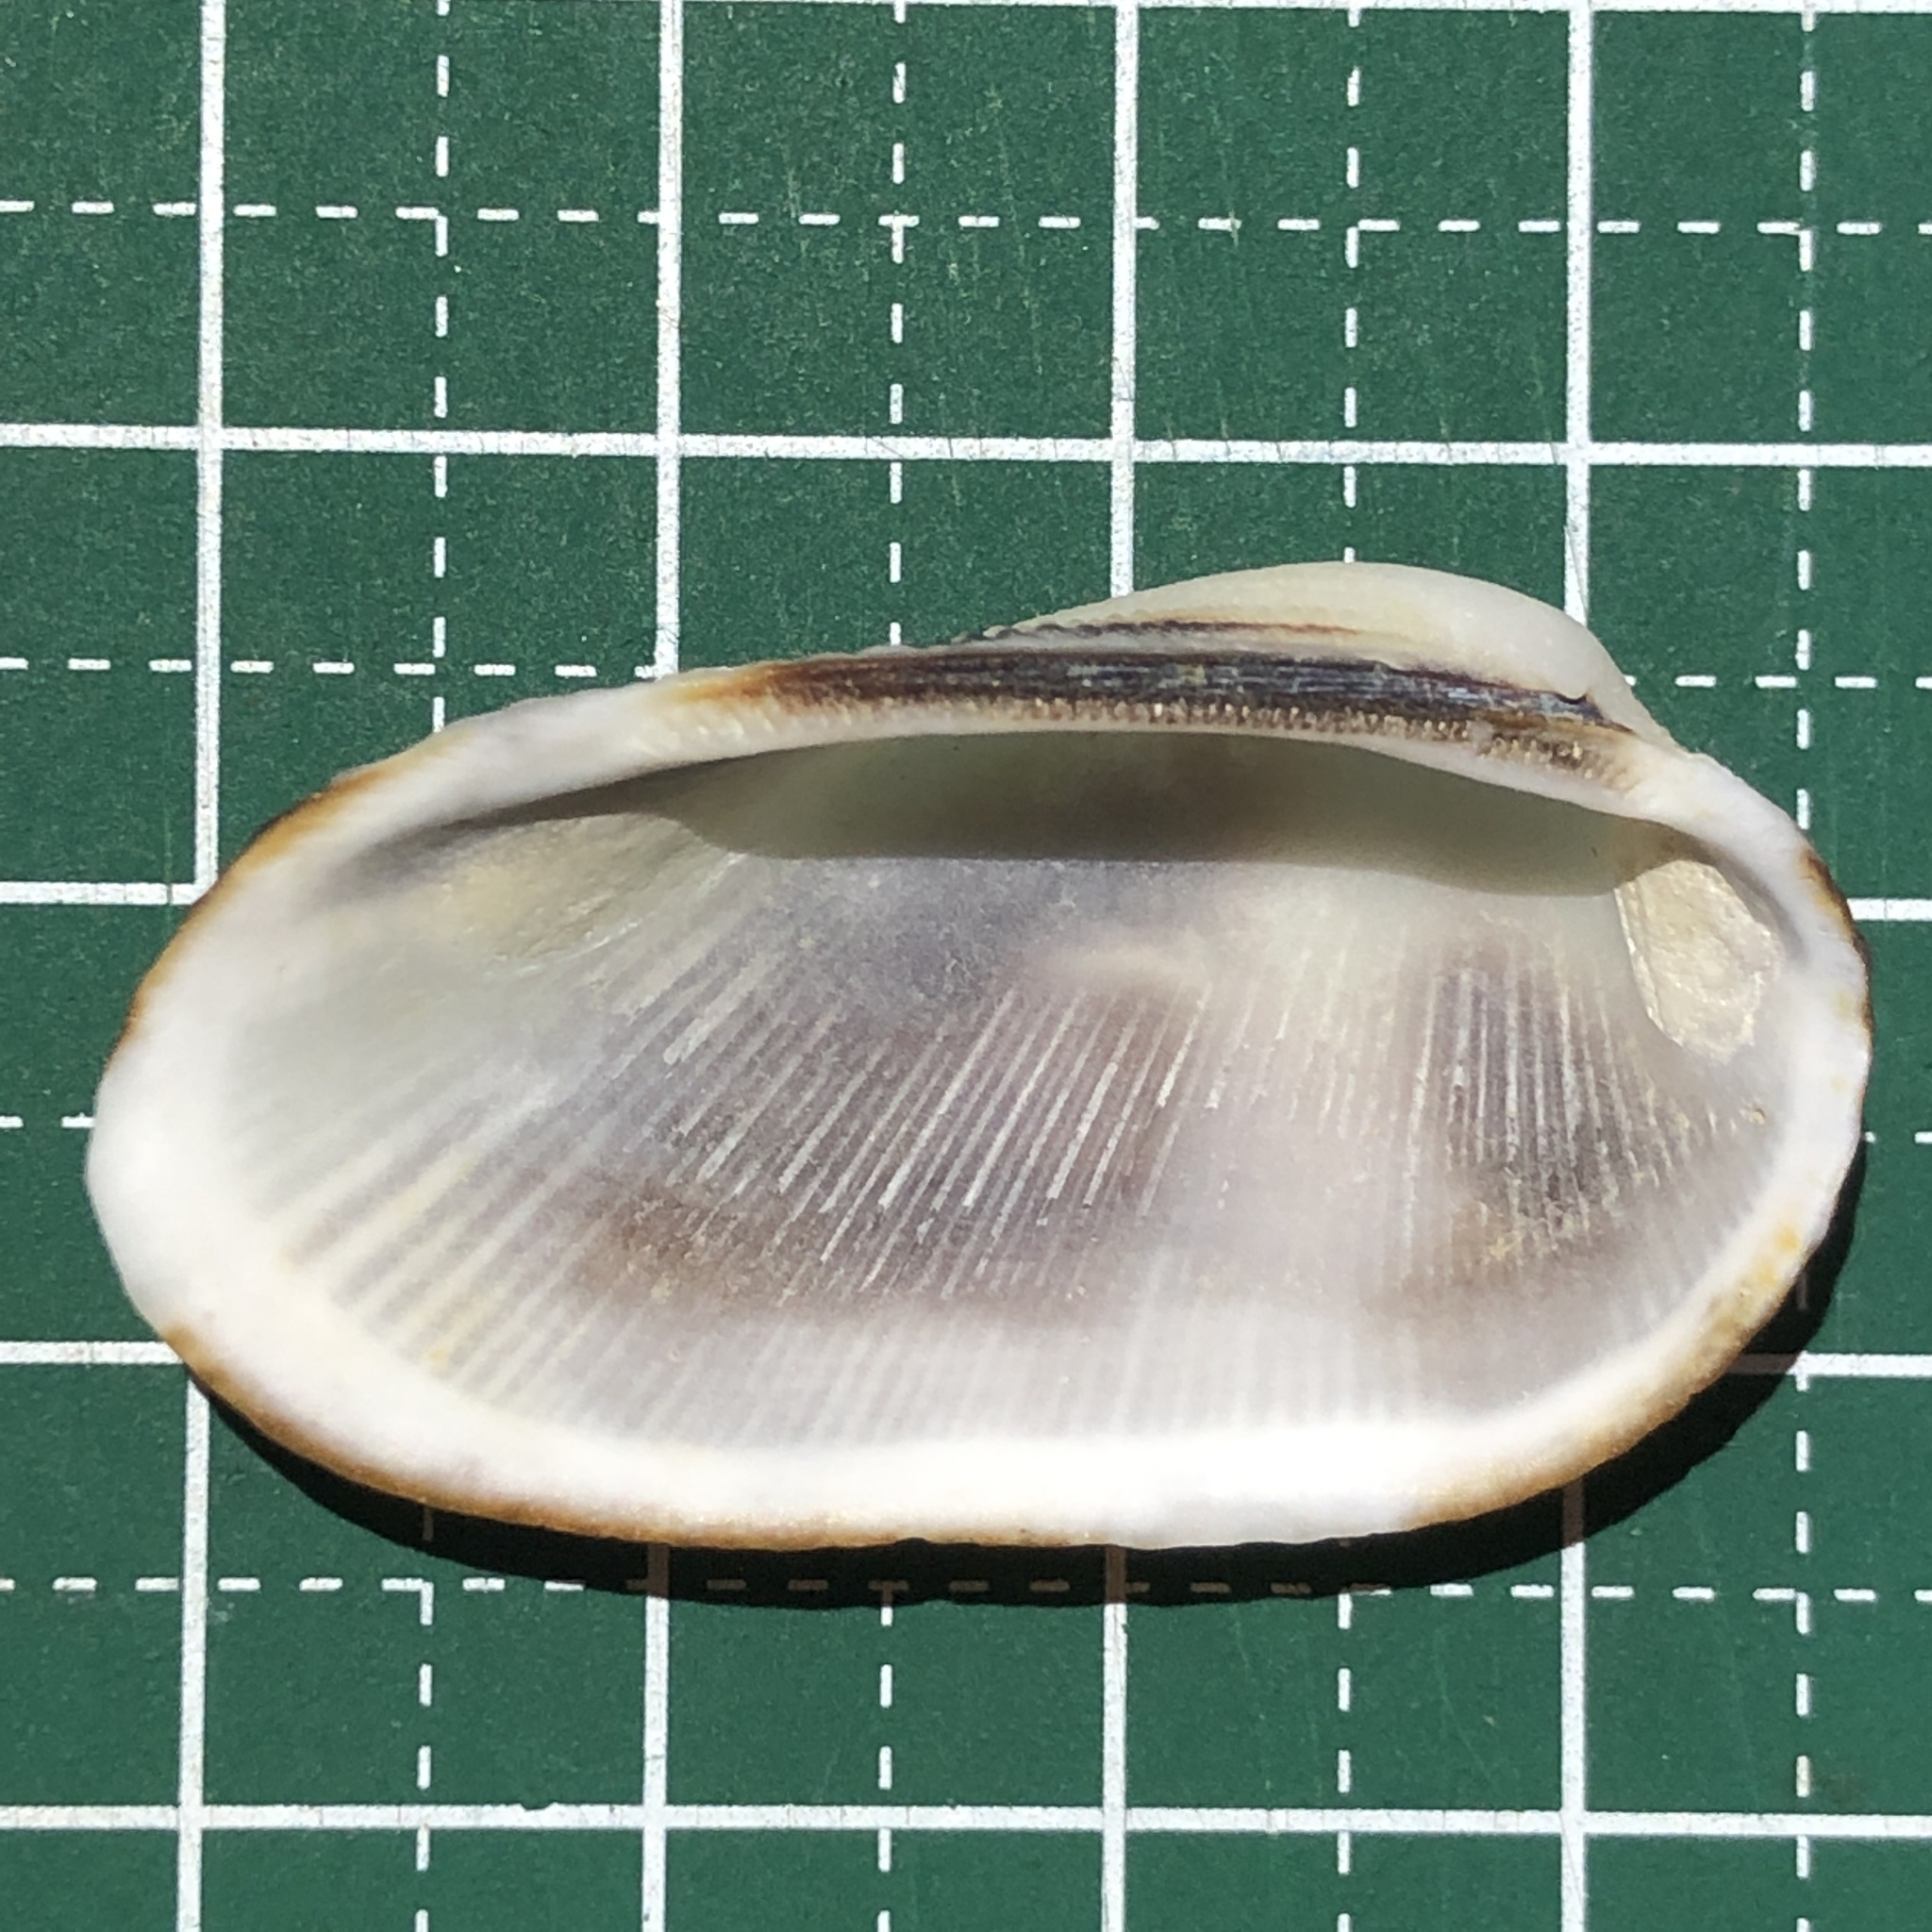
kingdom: Animalia
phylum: Mollusca
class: Bivalvia
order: Arcida
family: Arcidae
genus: Barbatia
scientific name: Barbatia amygdalumtostum
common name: Burnt-almond ark
